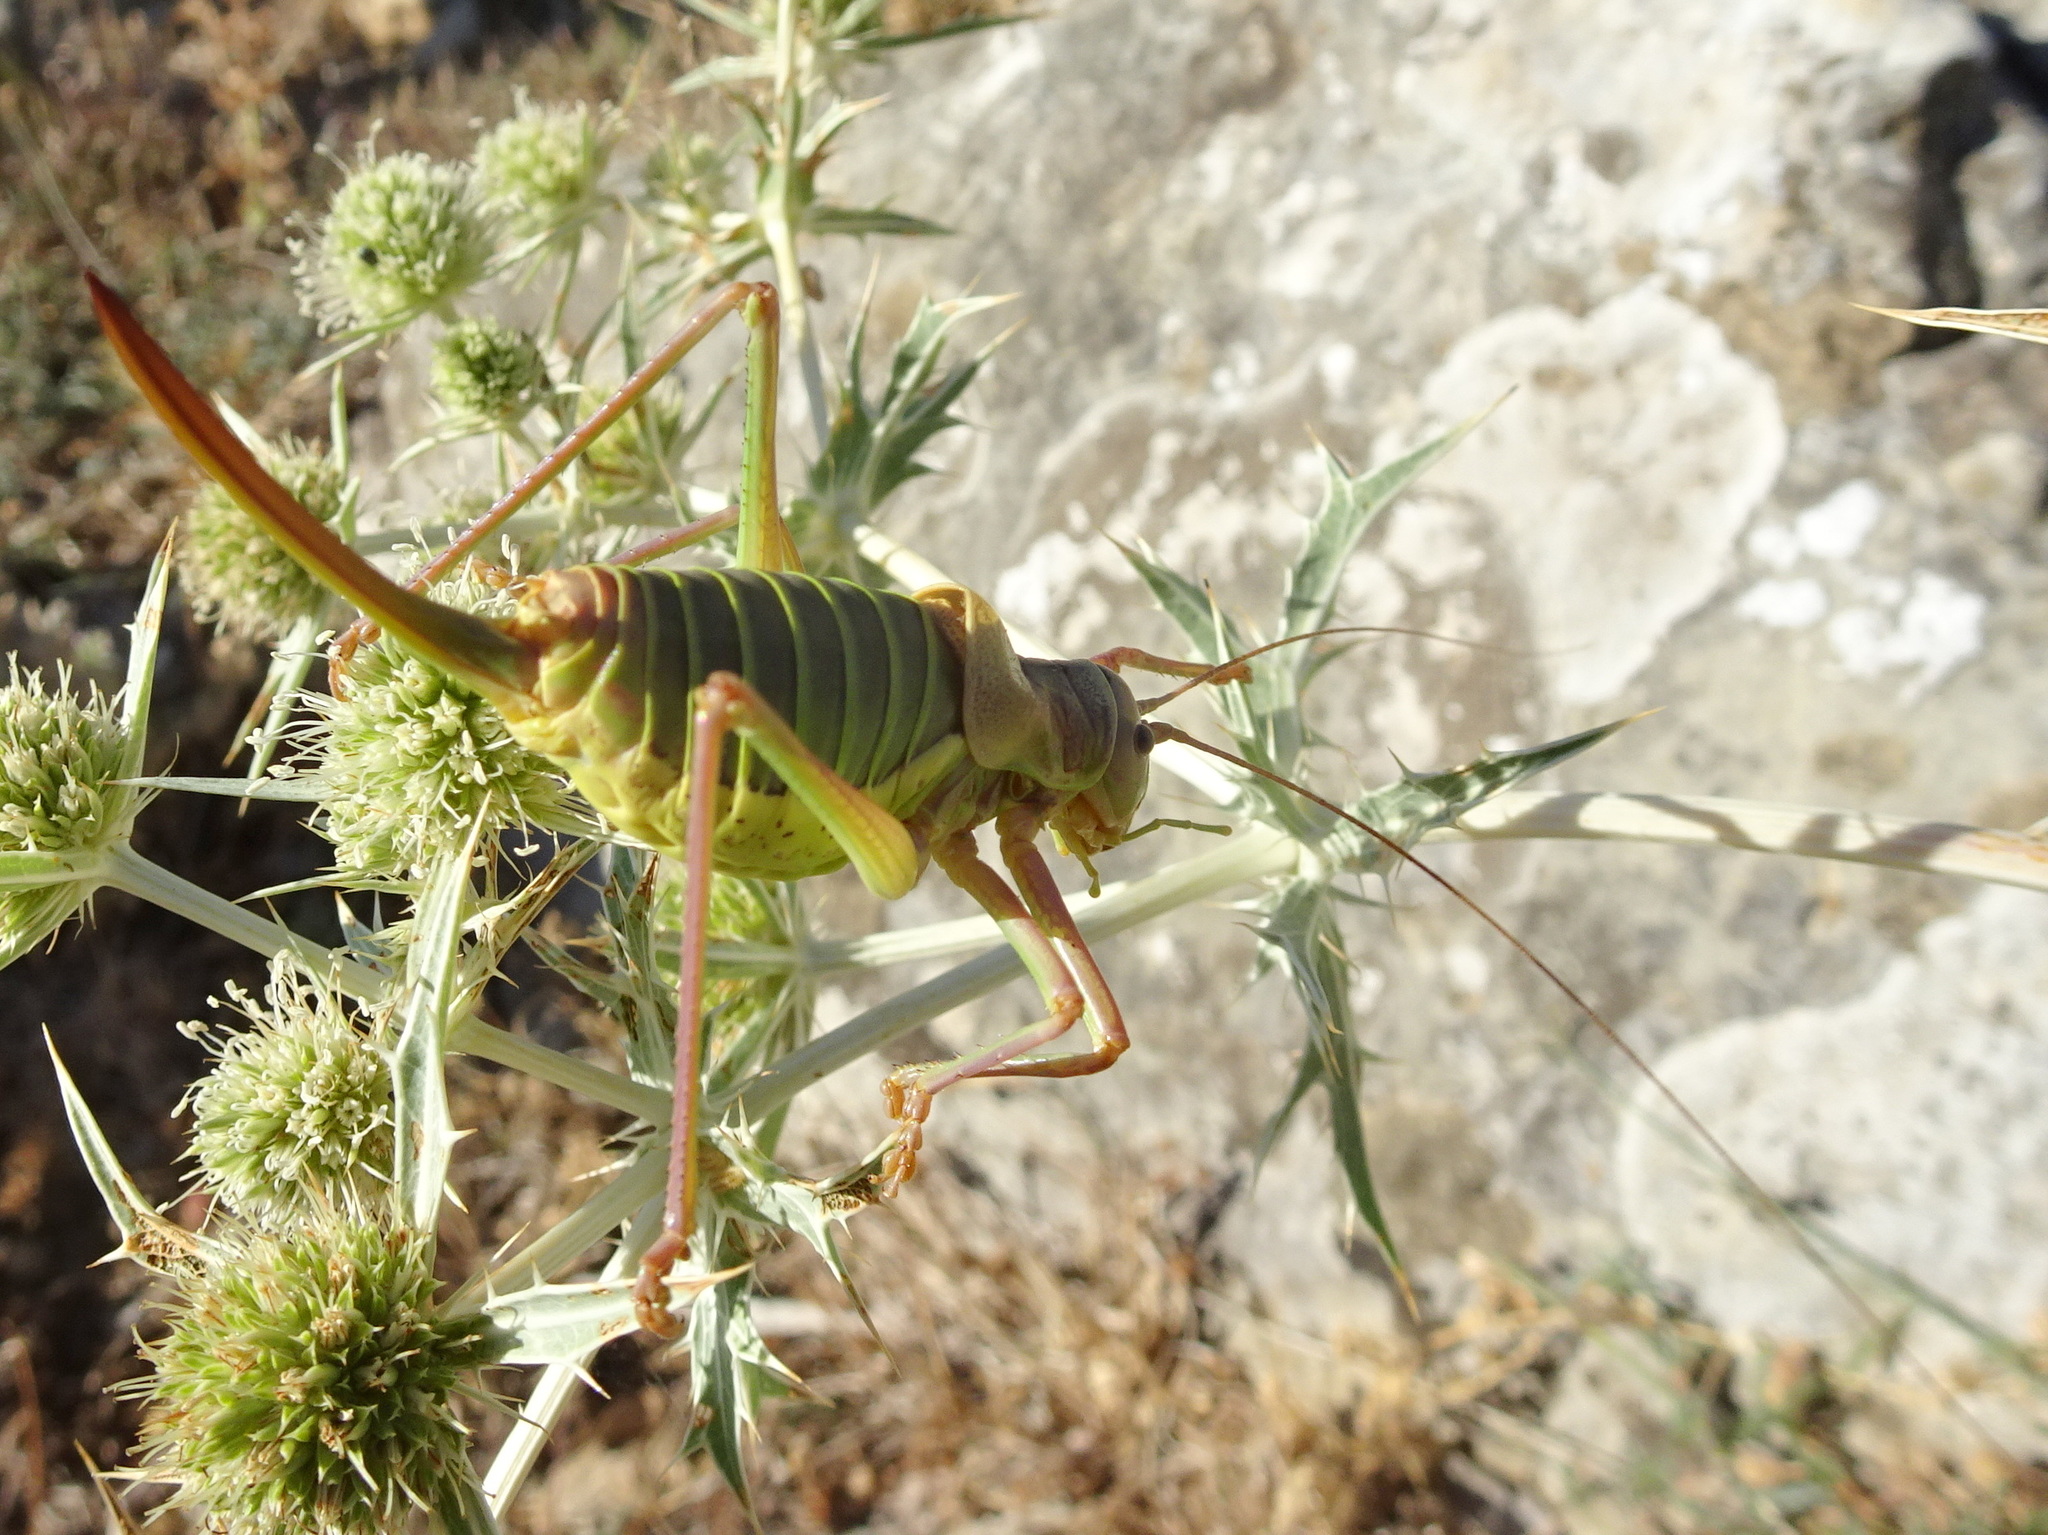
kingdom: Animalia
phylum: Arthropoda
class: Insecta
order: Orthoptera
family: Tettigoniidae
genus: Ephippiger
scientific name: Ephippiger diurnus
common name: Western saddle bush-cricket
